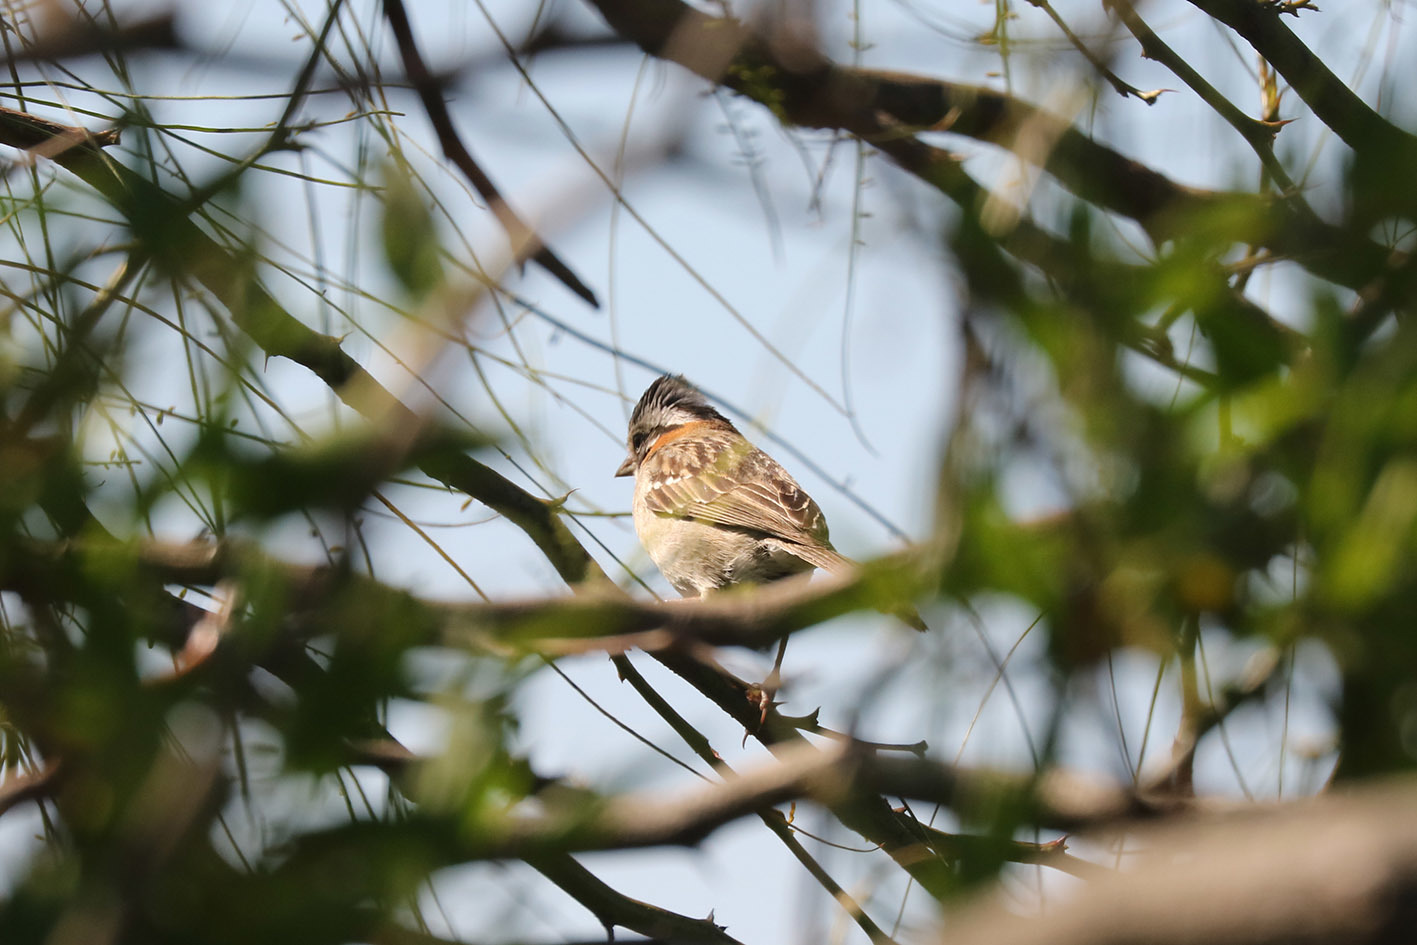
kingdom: Animalia
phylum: Chordata
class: Aves
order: Passeriformes
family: Passerellidae
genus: Zonotrichia
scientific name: Zonotrichia capensis
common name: Rufous-collared sparrow
